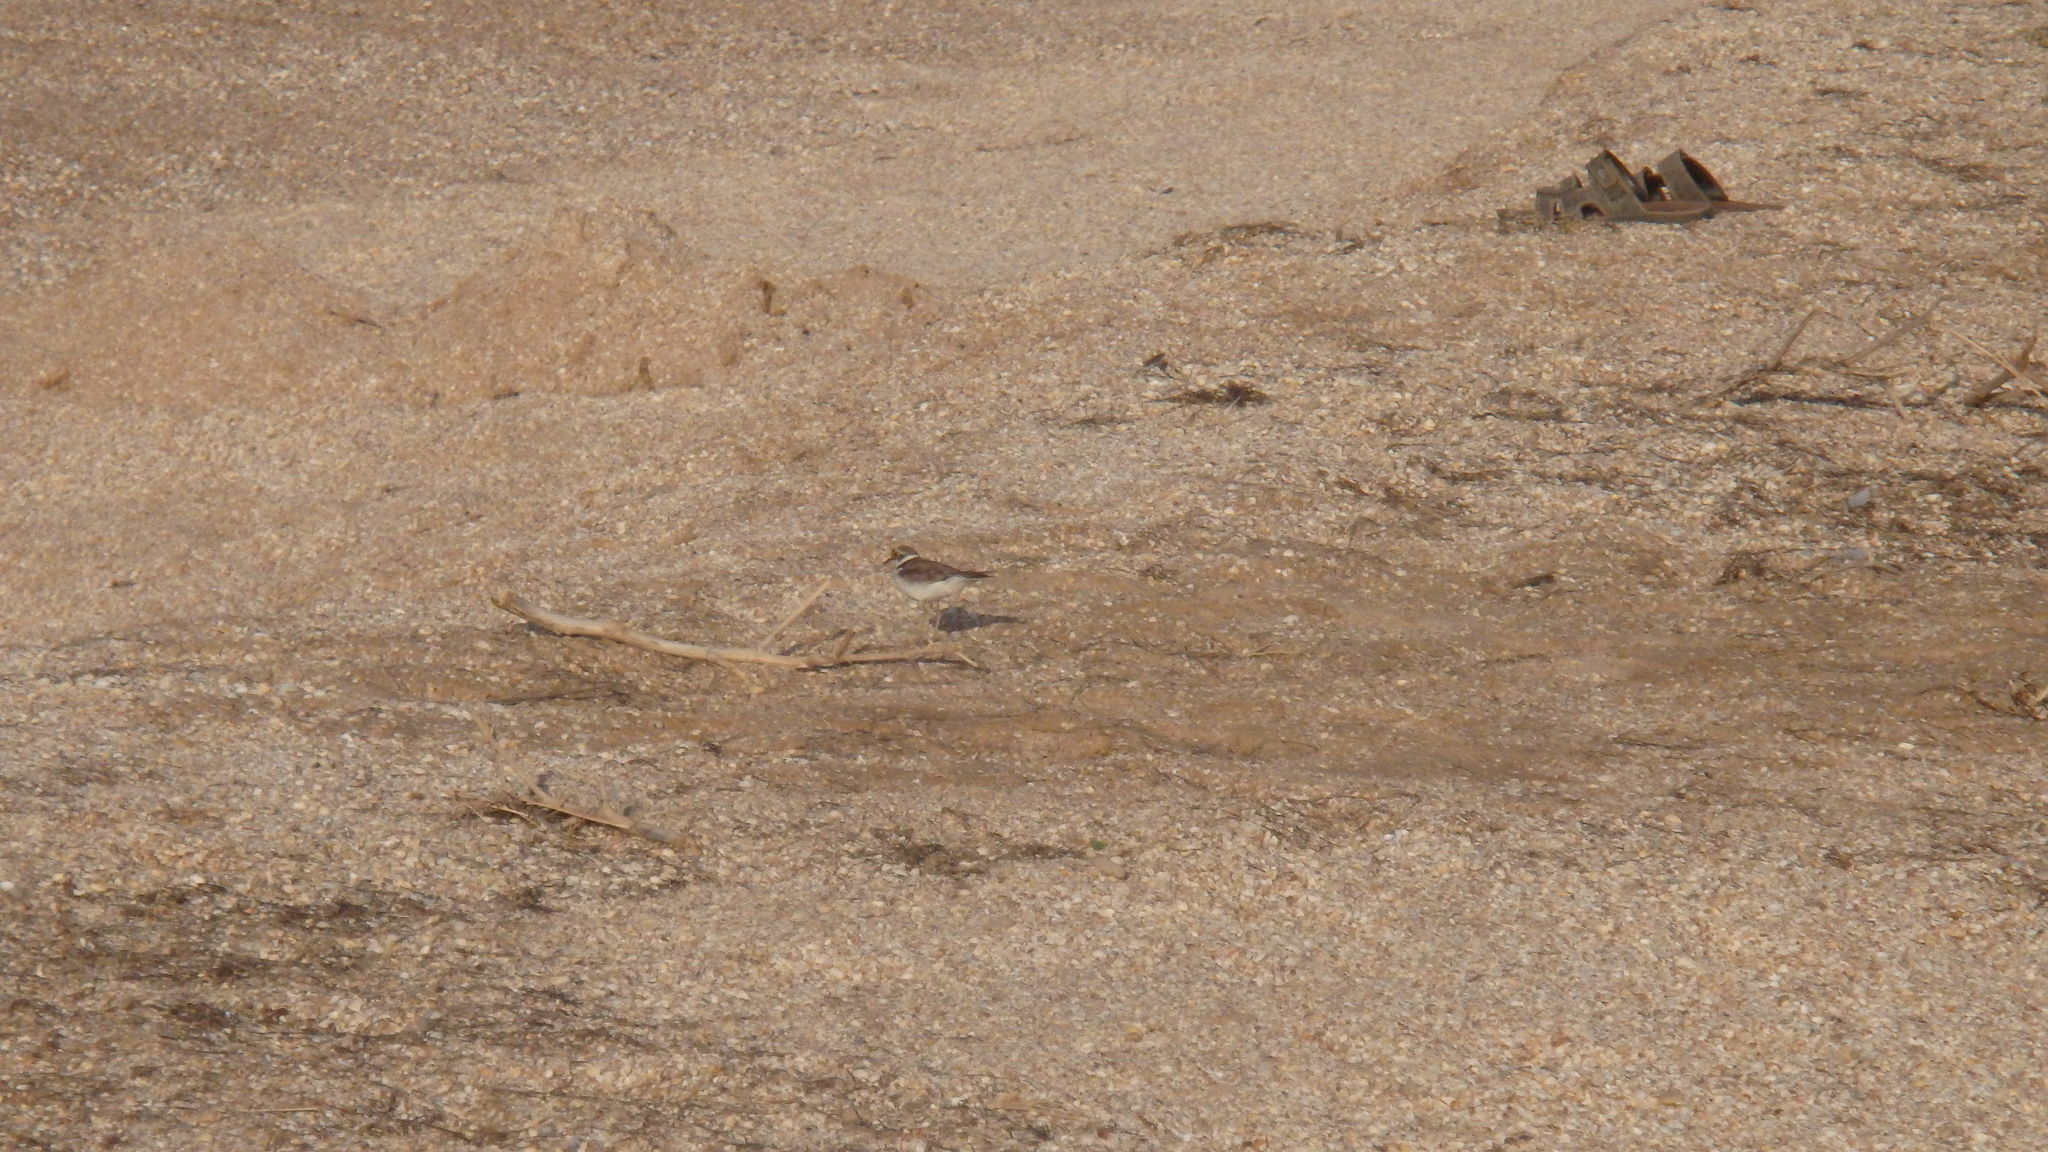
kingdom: Animalia
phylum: Chordata
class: Aves
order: Charadriiformes
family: Charadriidae
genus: Charadrius
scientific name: Charadrius dubius
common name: Little ringed plover
